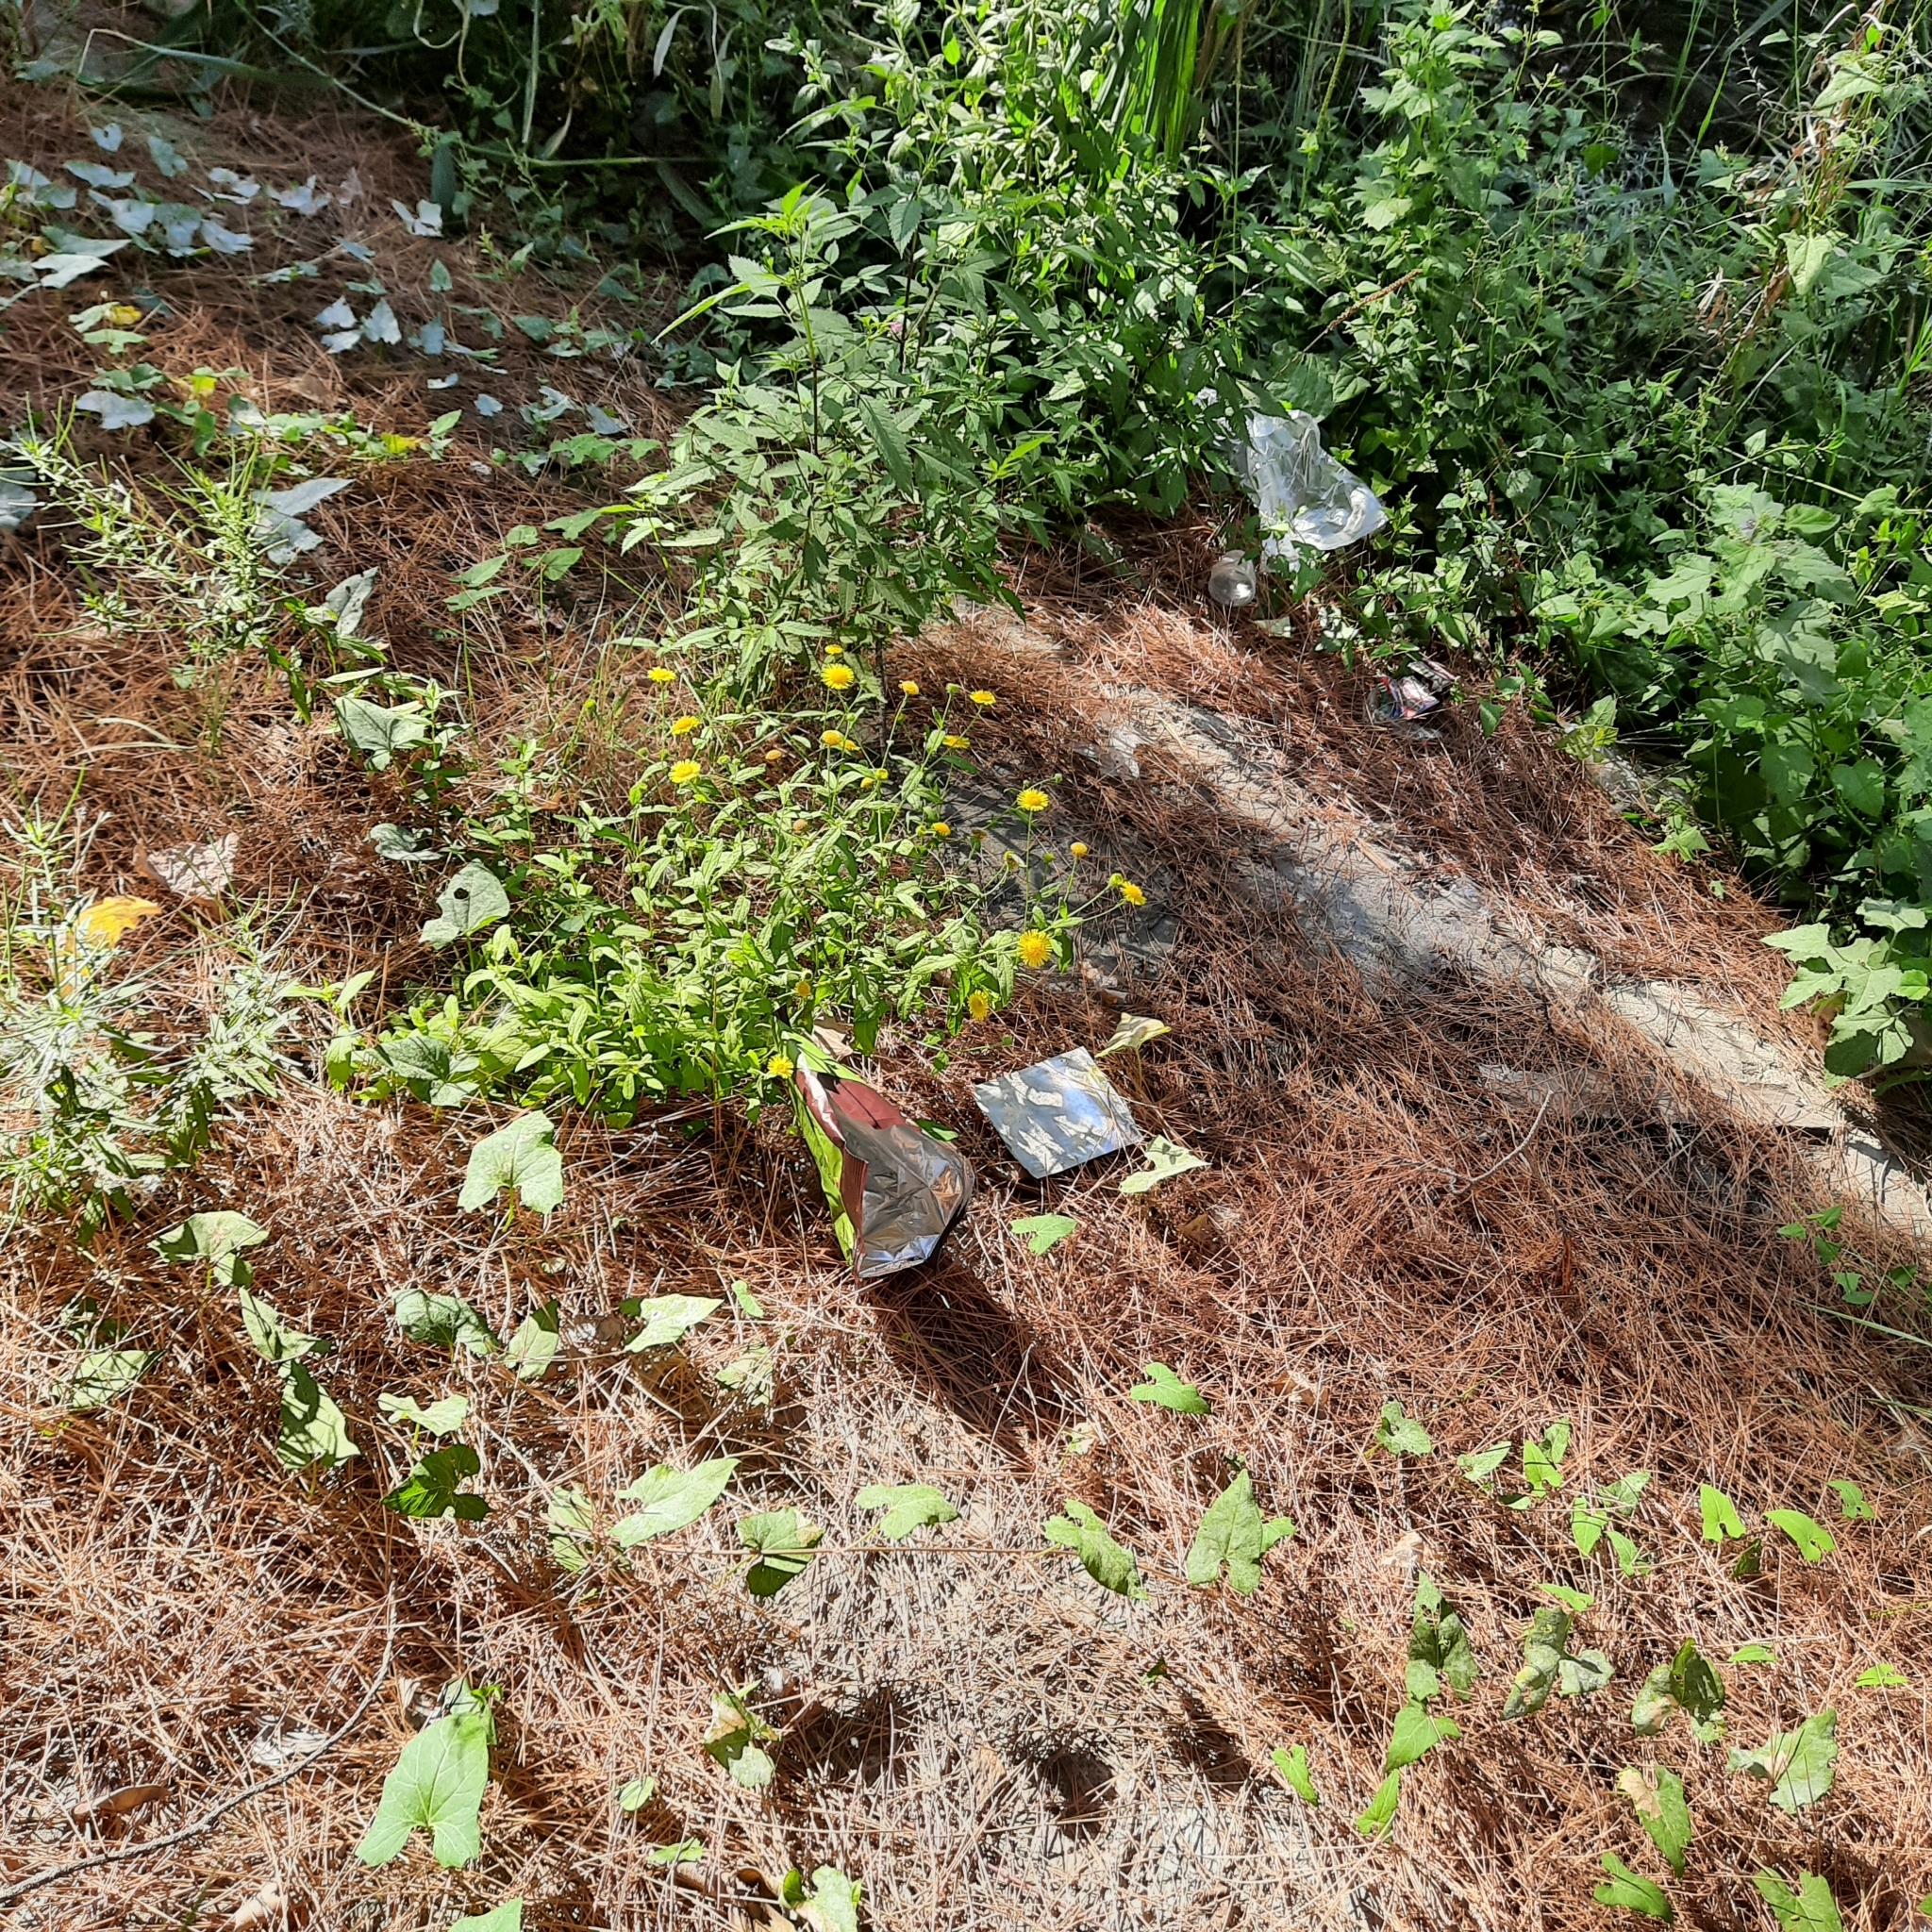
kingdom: Plantae
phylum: Tracheophyta
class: Magnoliopsida
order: Asterales
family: Asteraceae
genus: Pulicaria
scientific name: Pulicaria dysenterica
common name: Common fleabane
